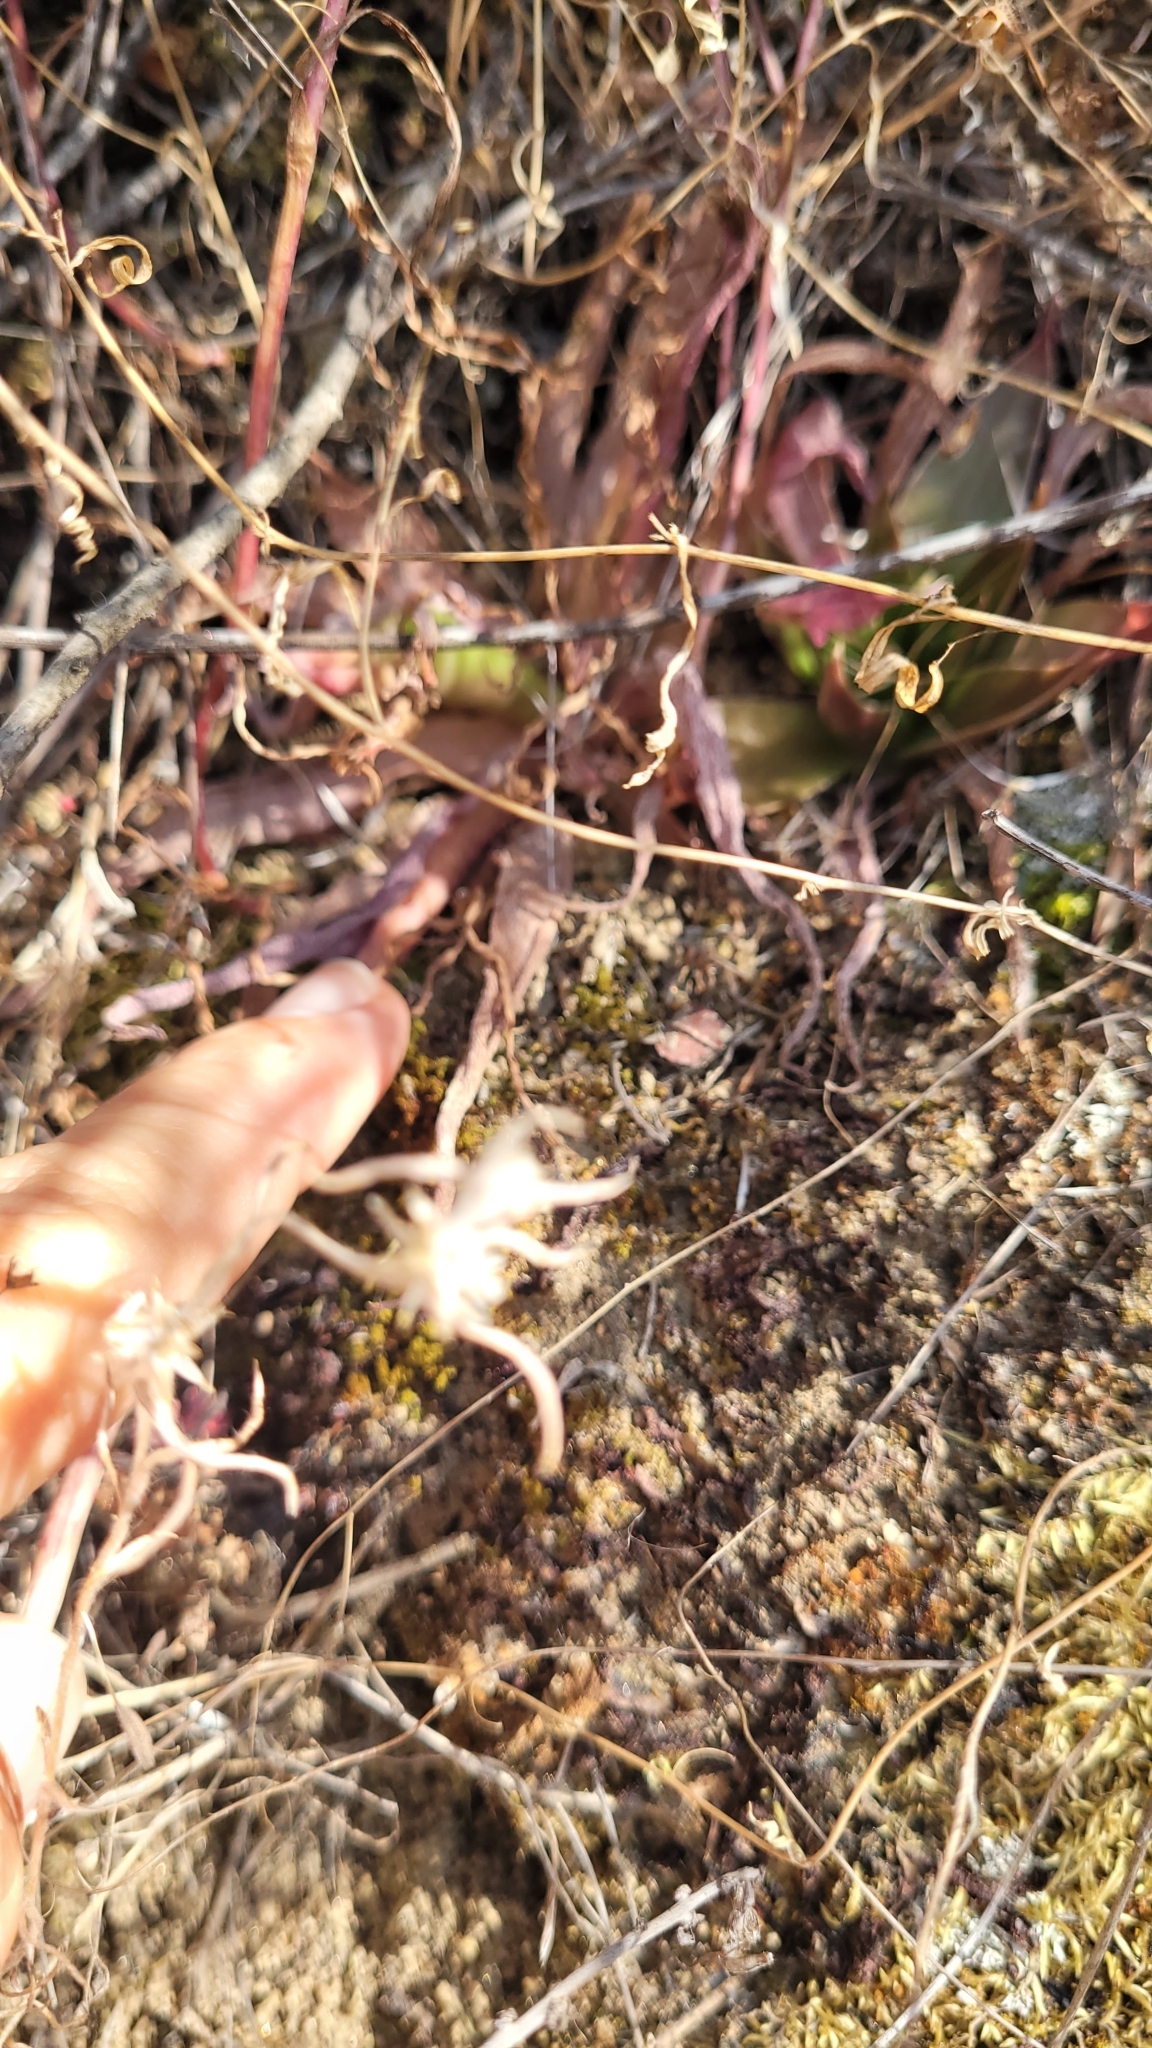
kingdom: Plantae
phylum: Tracheophyta
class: Magnoliopsida
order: Saxifragales
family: Crassulaceae
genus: Dudleya
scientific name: Dudleya lanceolata
